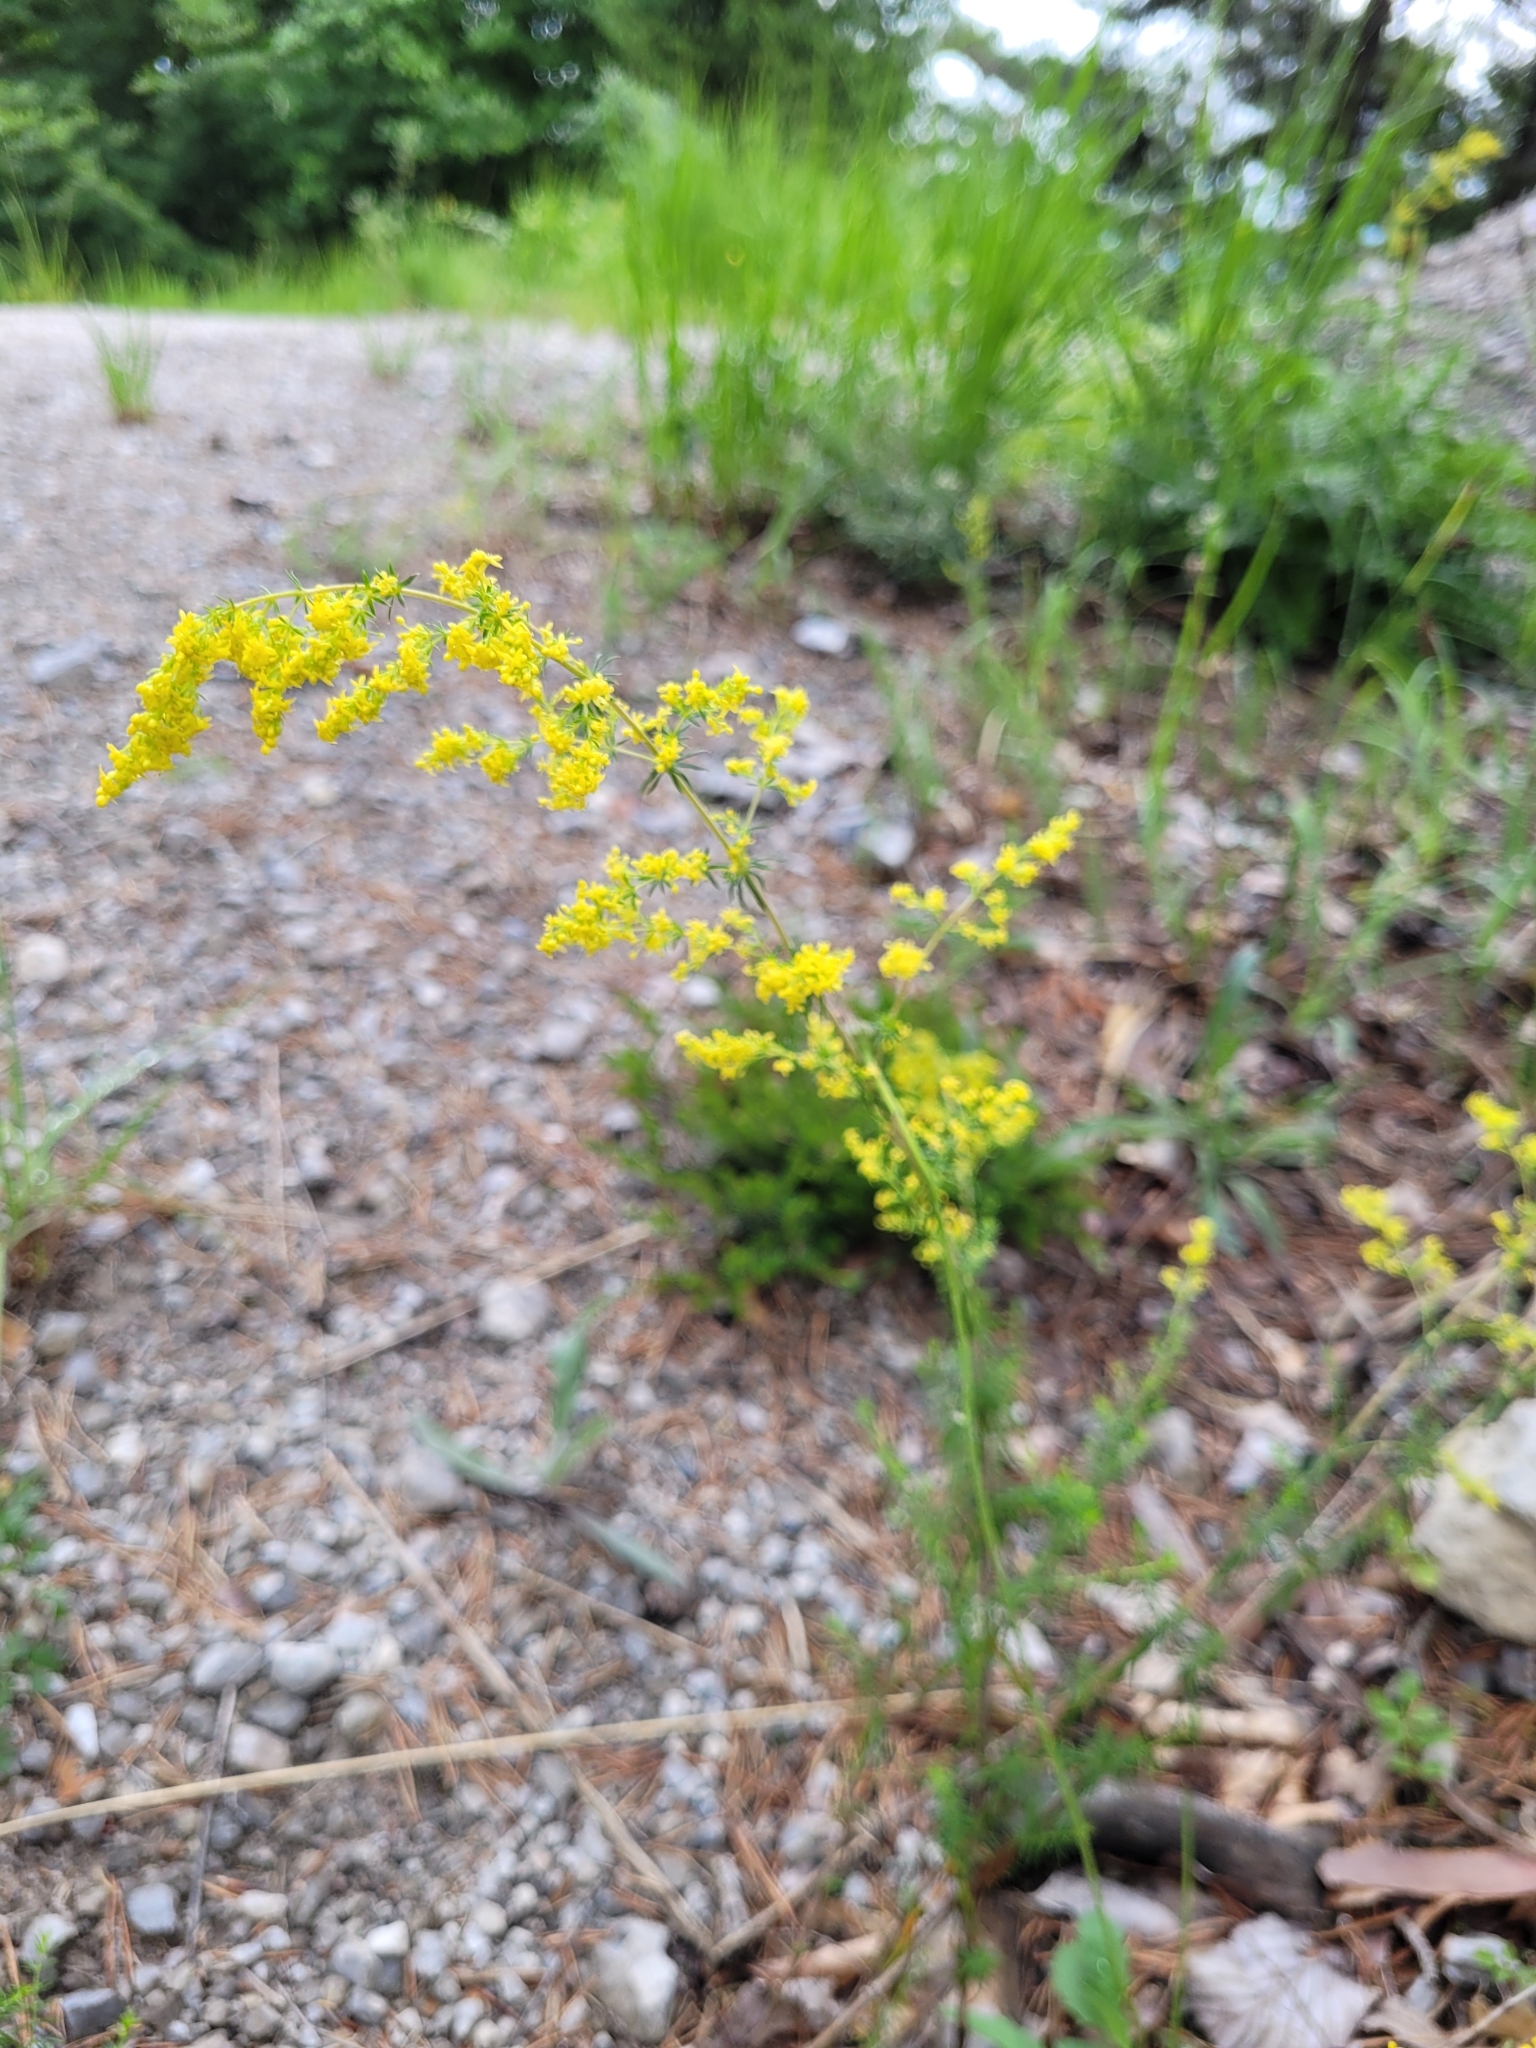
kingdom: Plantae
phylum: Tracheophyta
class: Magnoliopsida
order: Gentianales
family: Rubiaceae
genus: Galium
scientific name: Galium verum
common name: Lady's bedstraw
